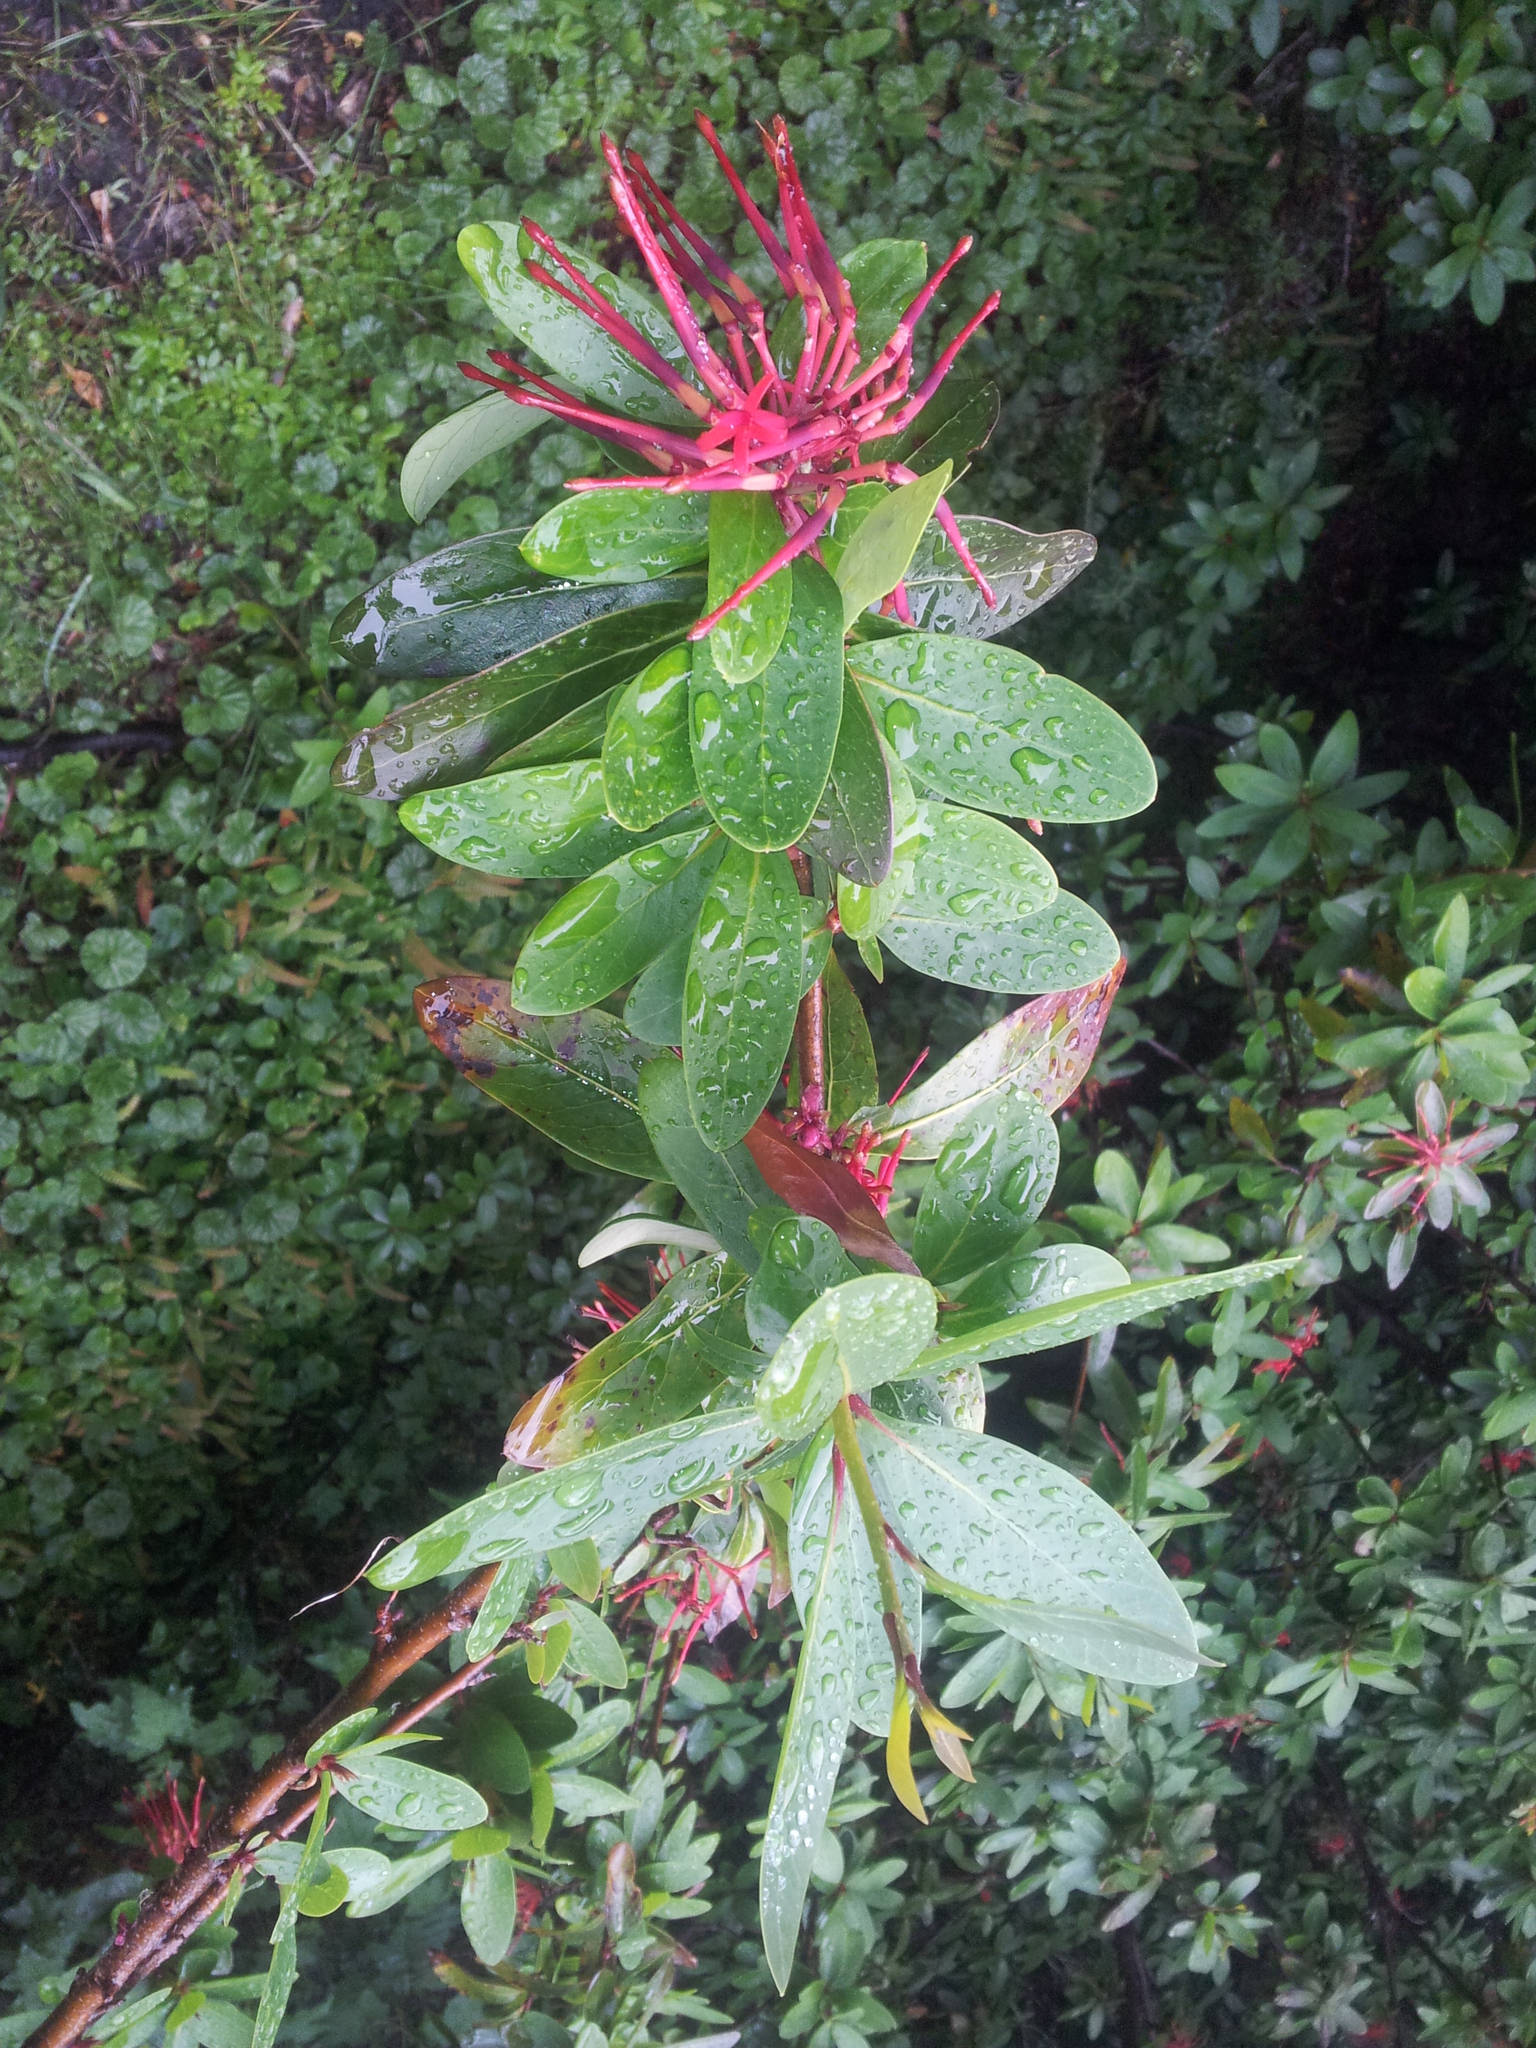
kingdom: Plantae
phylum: Tracheophyta
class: Magnoliopsida
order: Proteales
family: Proteaceae
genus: Embothrium
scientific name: Embothrium coccineum
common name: Chilean firebush
